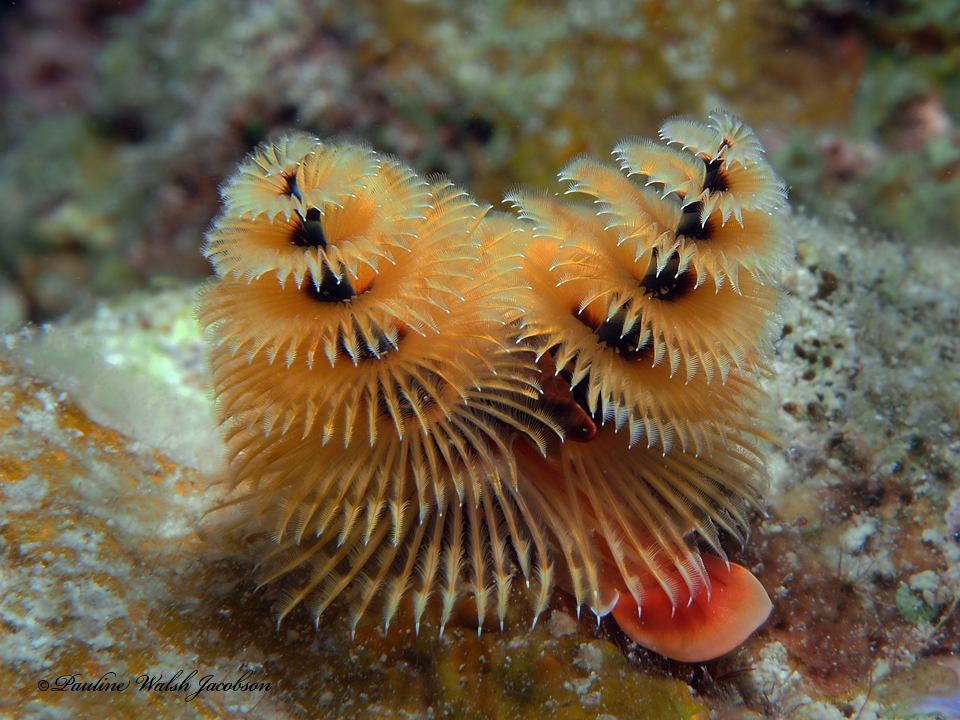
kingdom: Animalia
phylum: Annelida
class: Polychaeta
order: Sabellida
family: Serpulidae
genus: Spirobranchus
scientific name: Spirobranchus giganteus
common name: Christmas tree worm
